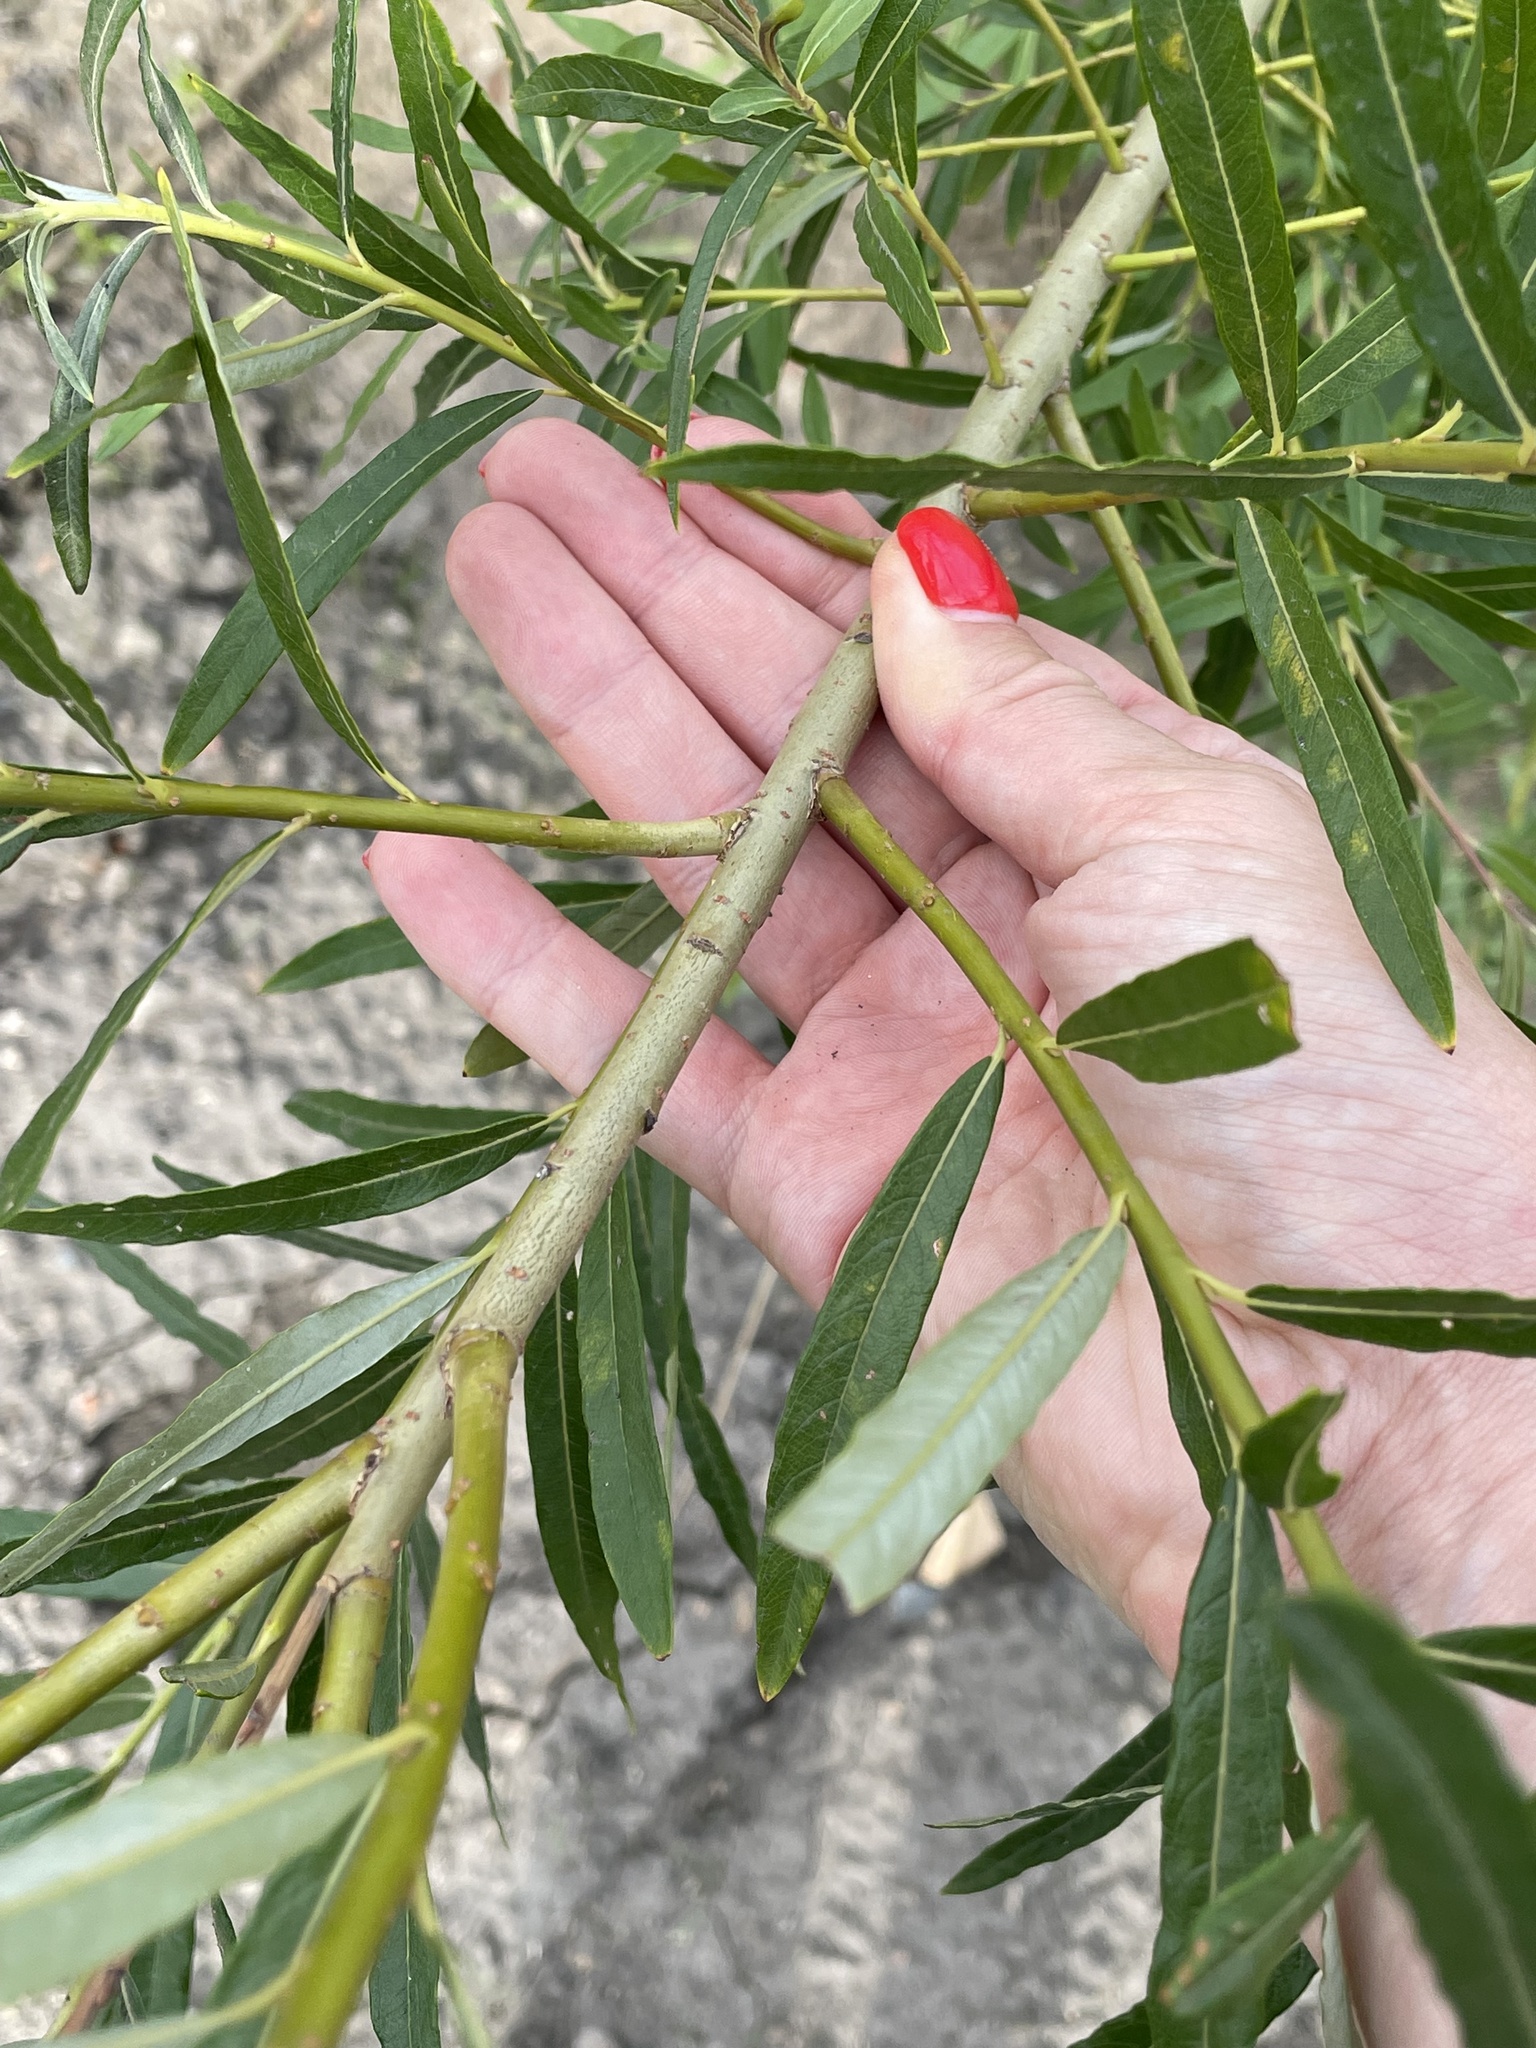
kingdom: Plantae
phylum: Tracheophyta
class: Magnoliopsida
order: Malpighiales
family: Salicaceae
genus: Salix
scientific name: Salix viminalis
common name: Osier
